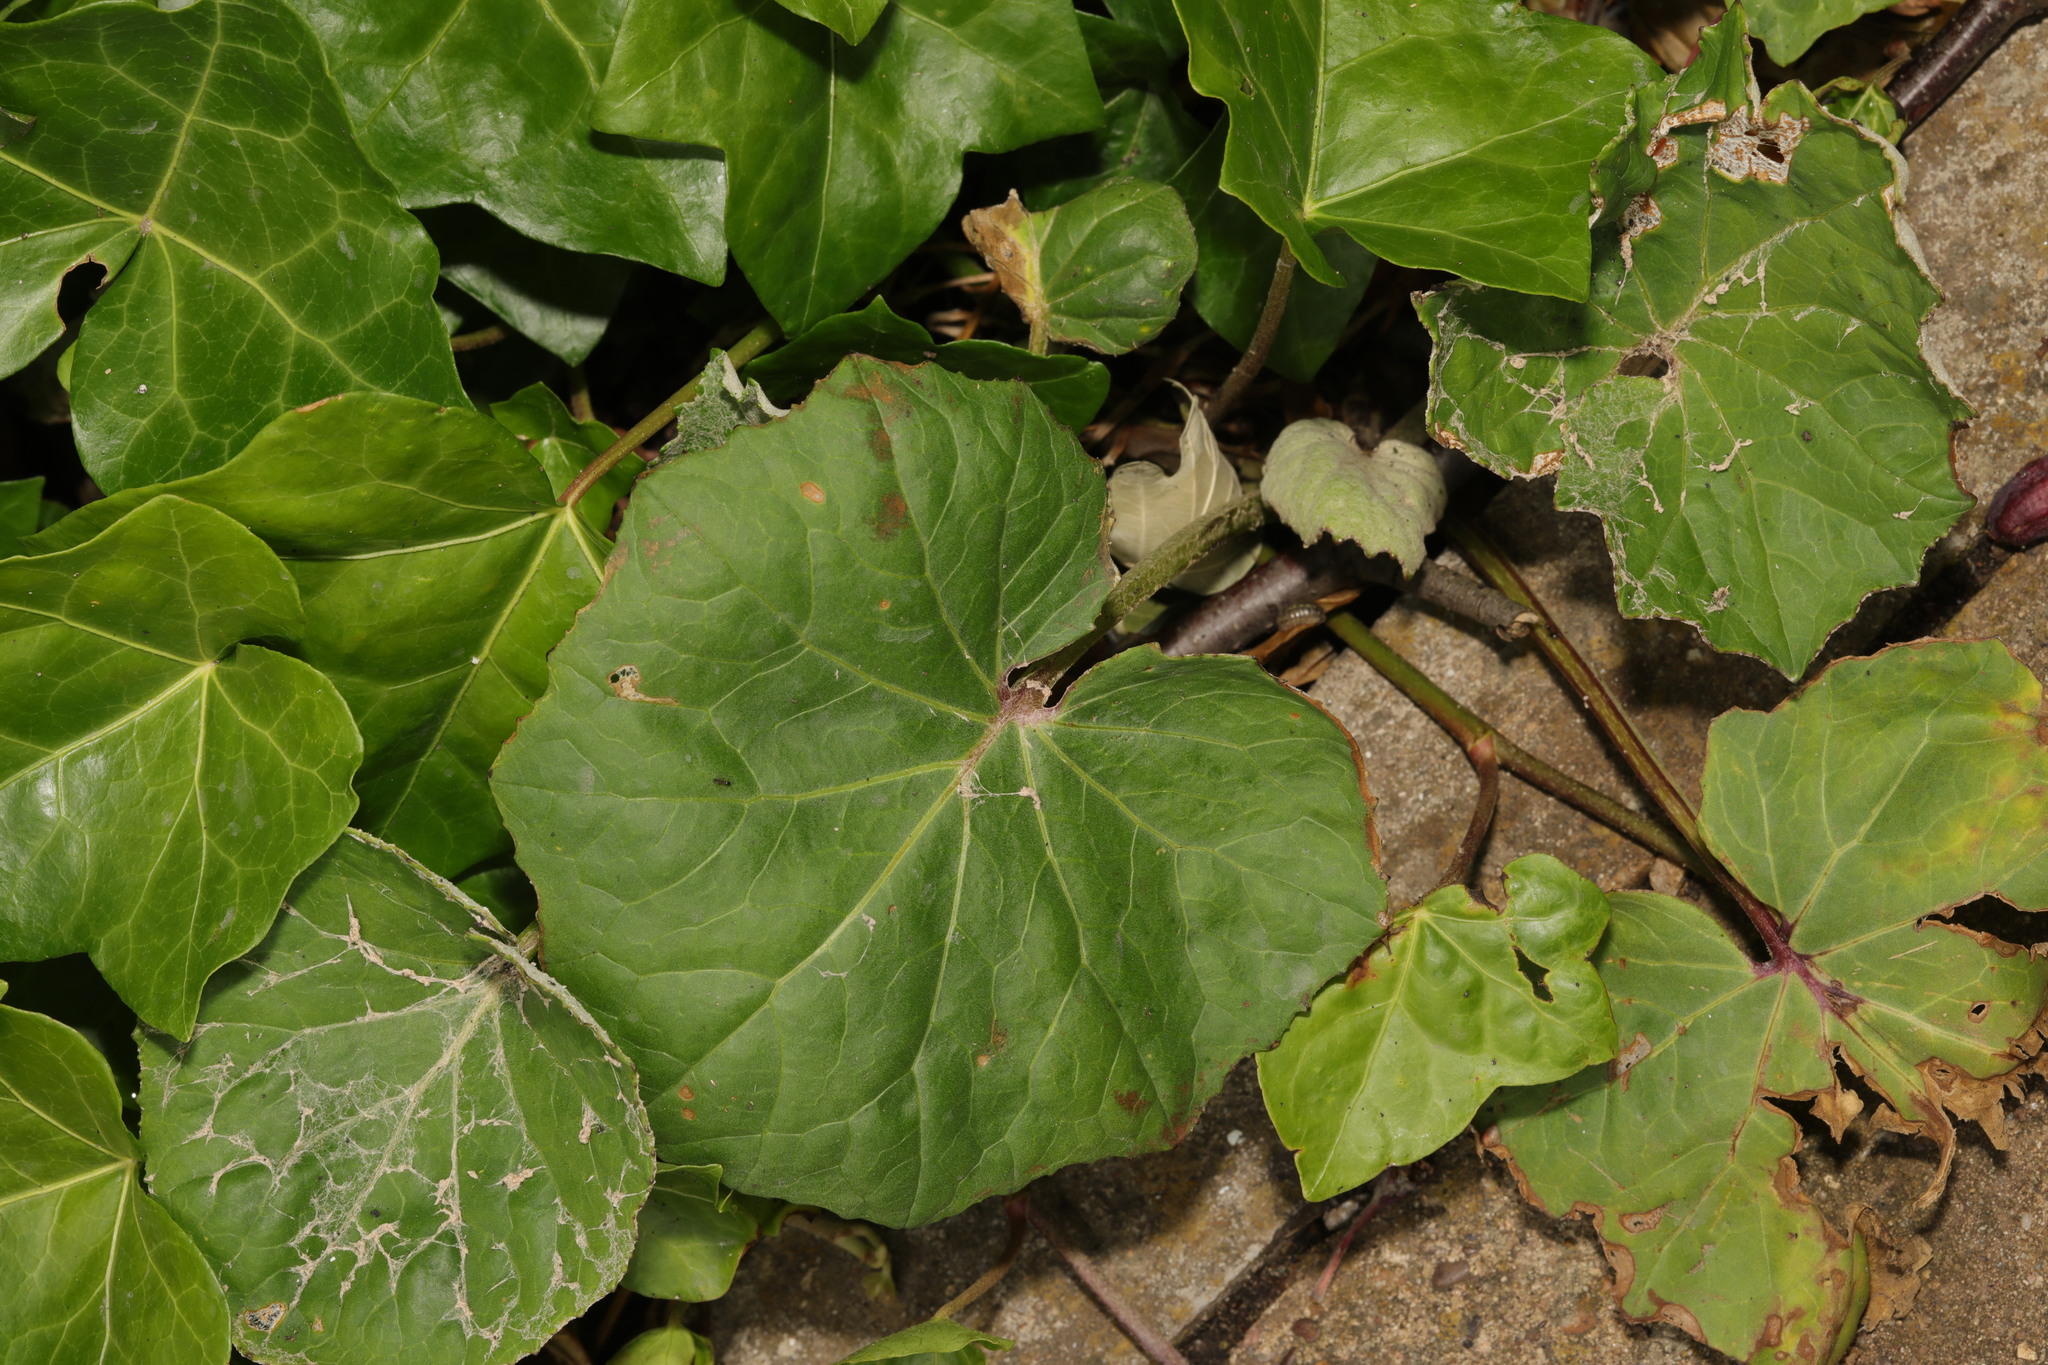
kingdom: Plantae
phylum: Tracheophyta
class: Magnoliopsida
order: Asterales
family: Asteraceae
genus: Tussilago
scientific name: Tussilago farfara
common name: Coltsfoot
